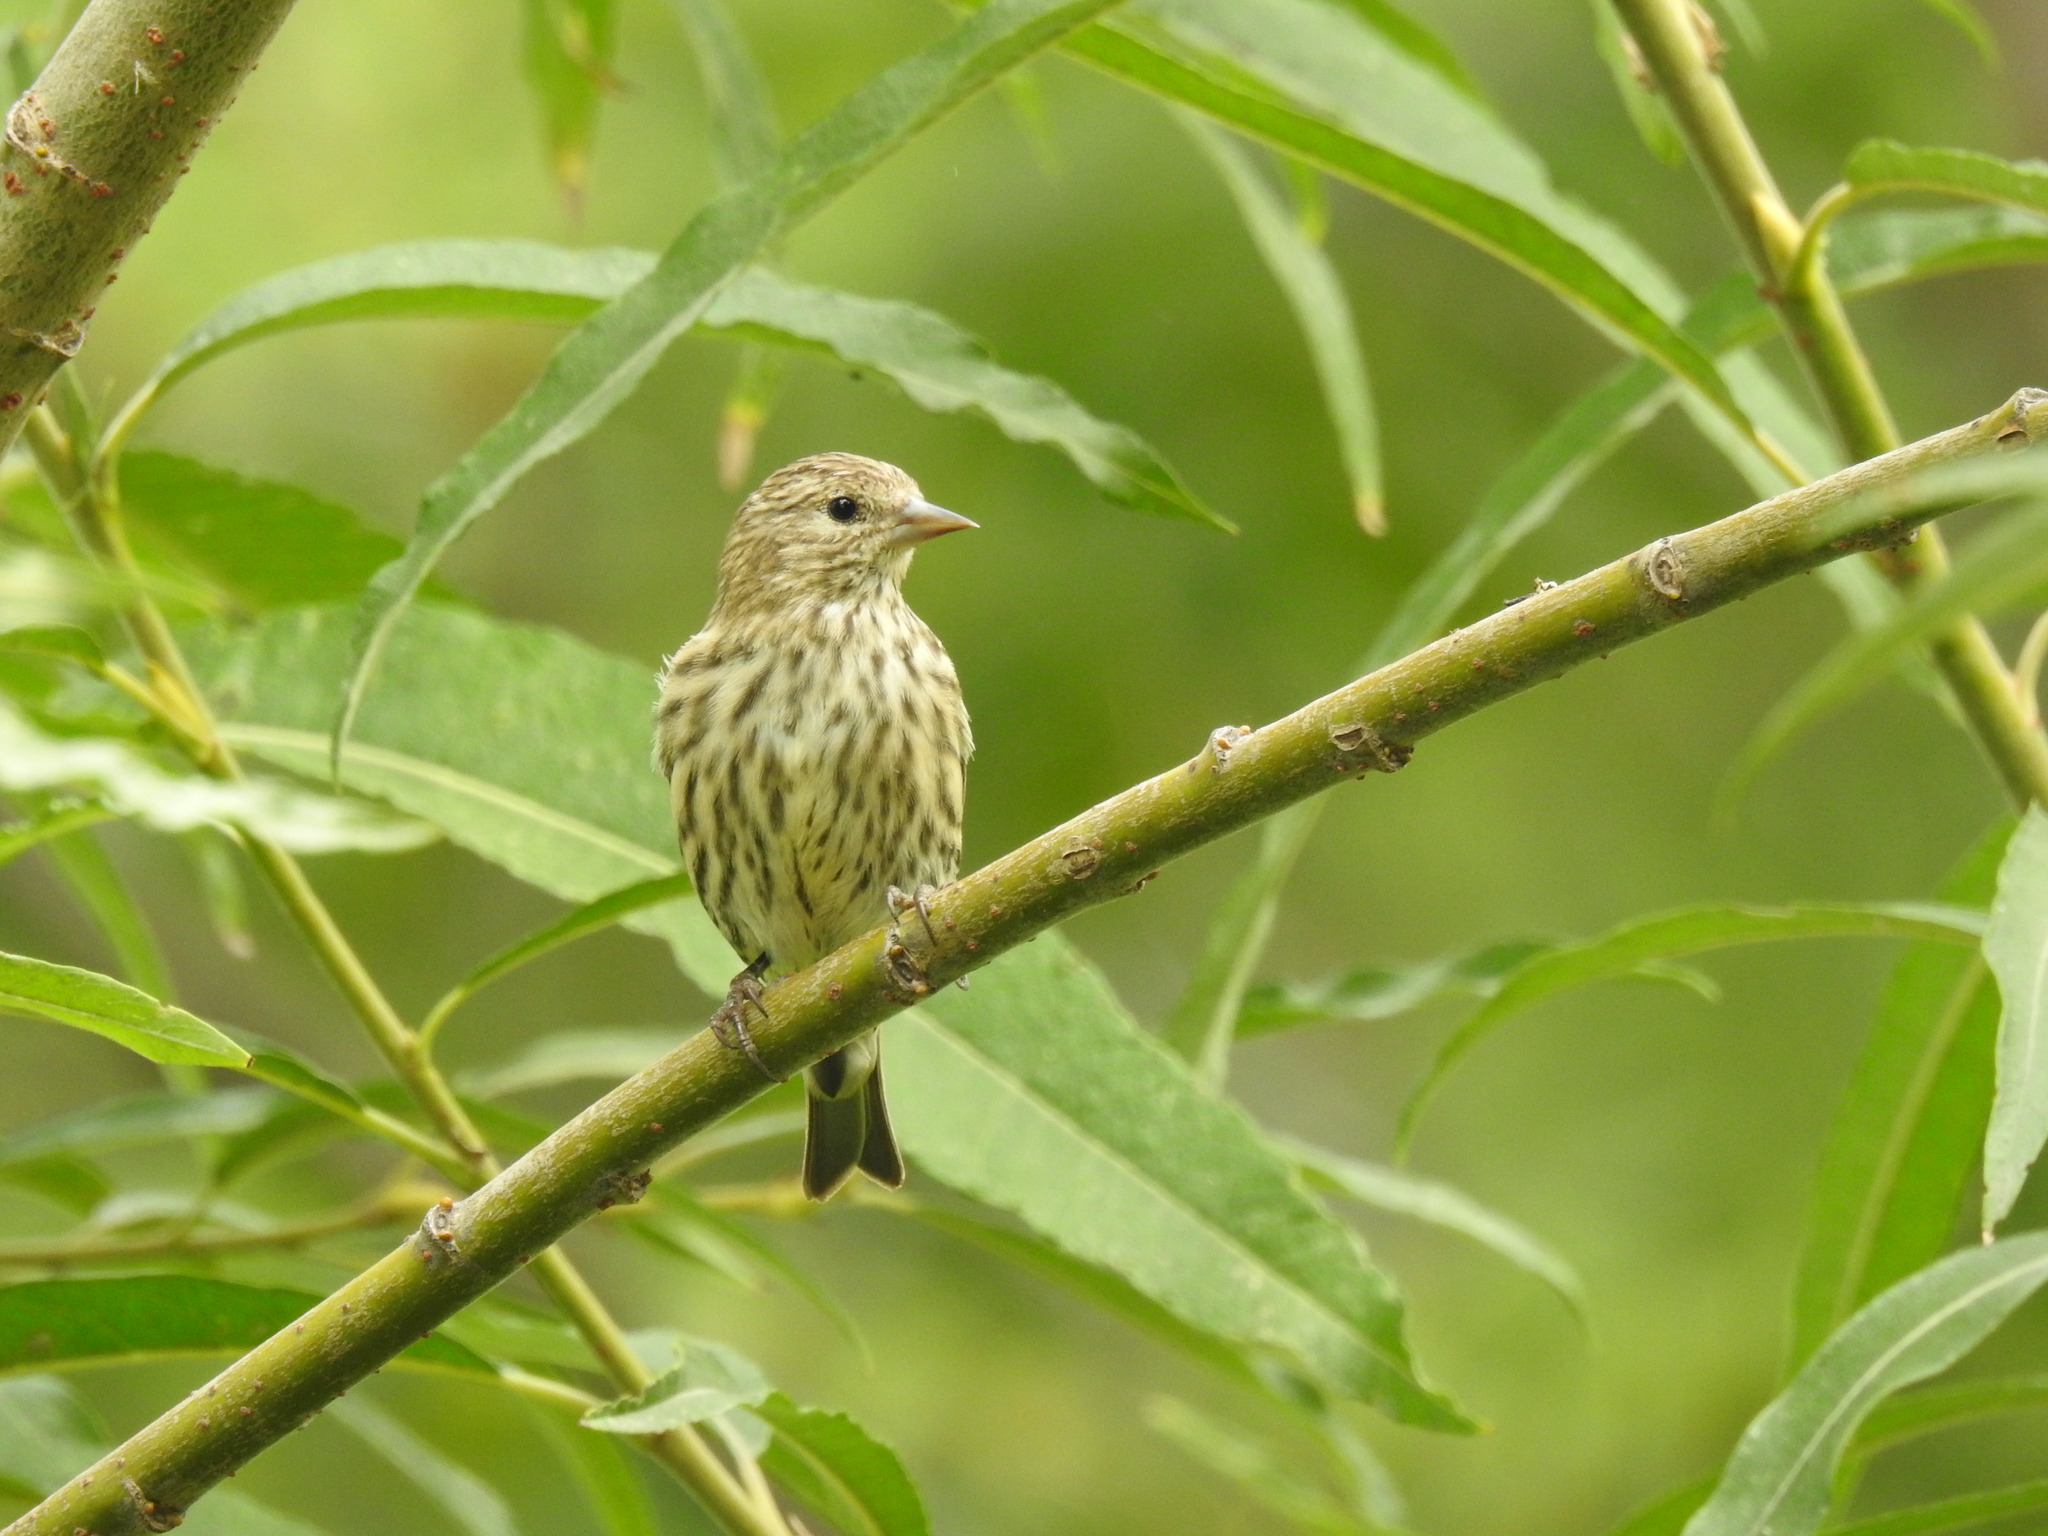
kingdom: Animalia
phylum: Chordata
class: Aves
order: Passeriformes
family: Fringillidae
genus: Spinus
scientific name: Spinus pinus
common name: Pine siskin
